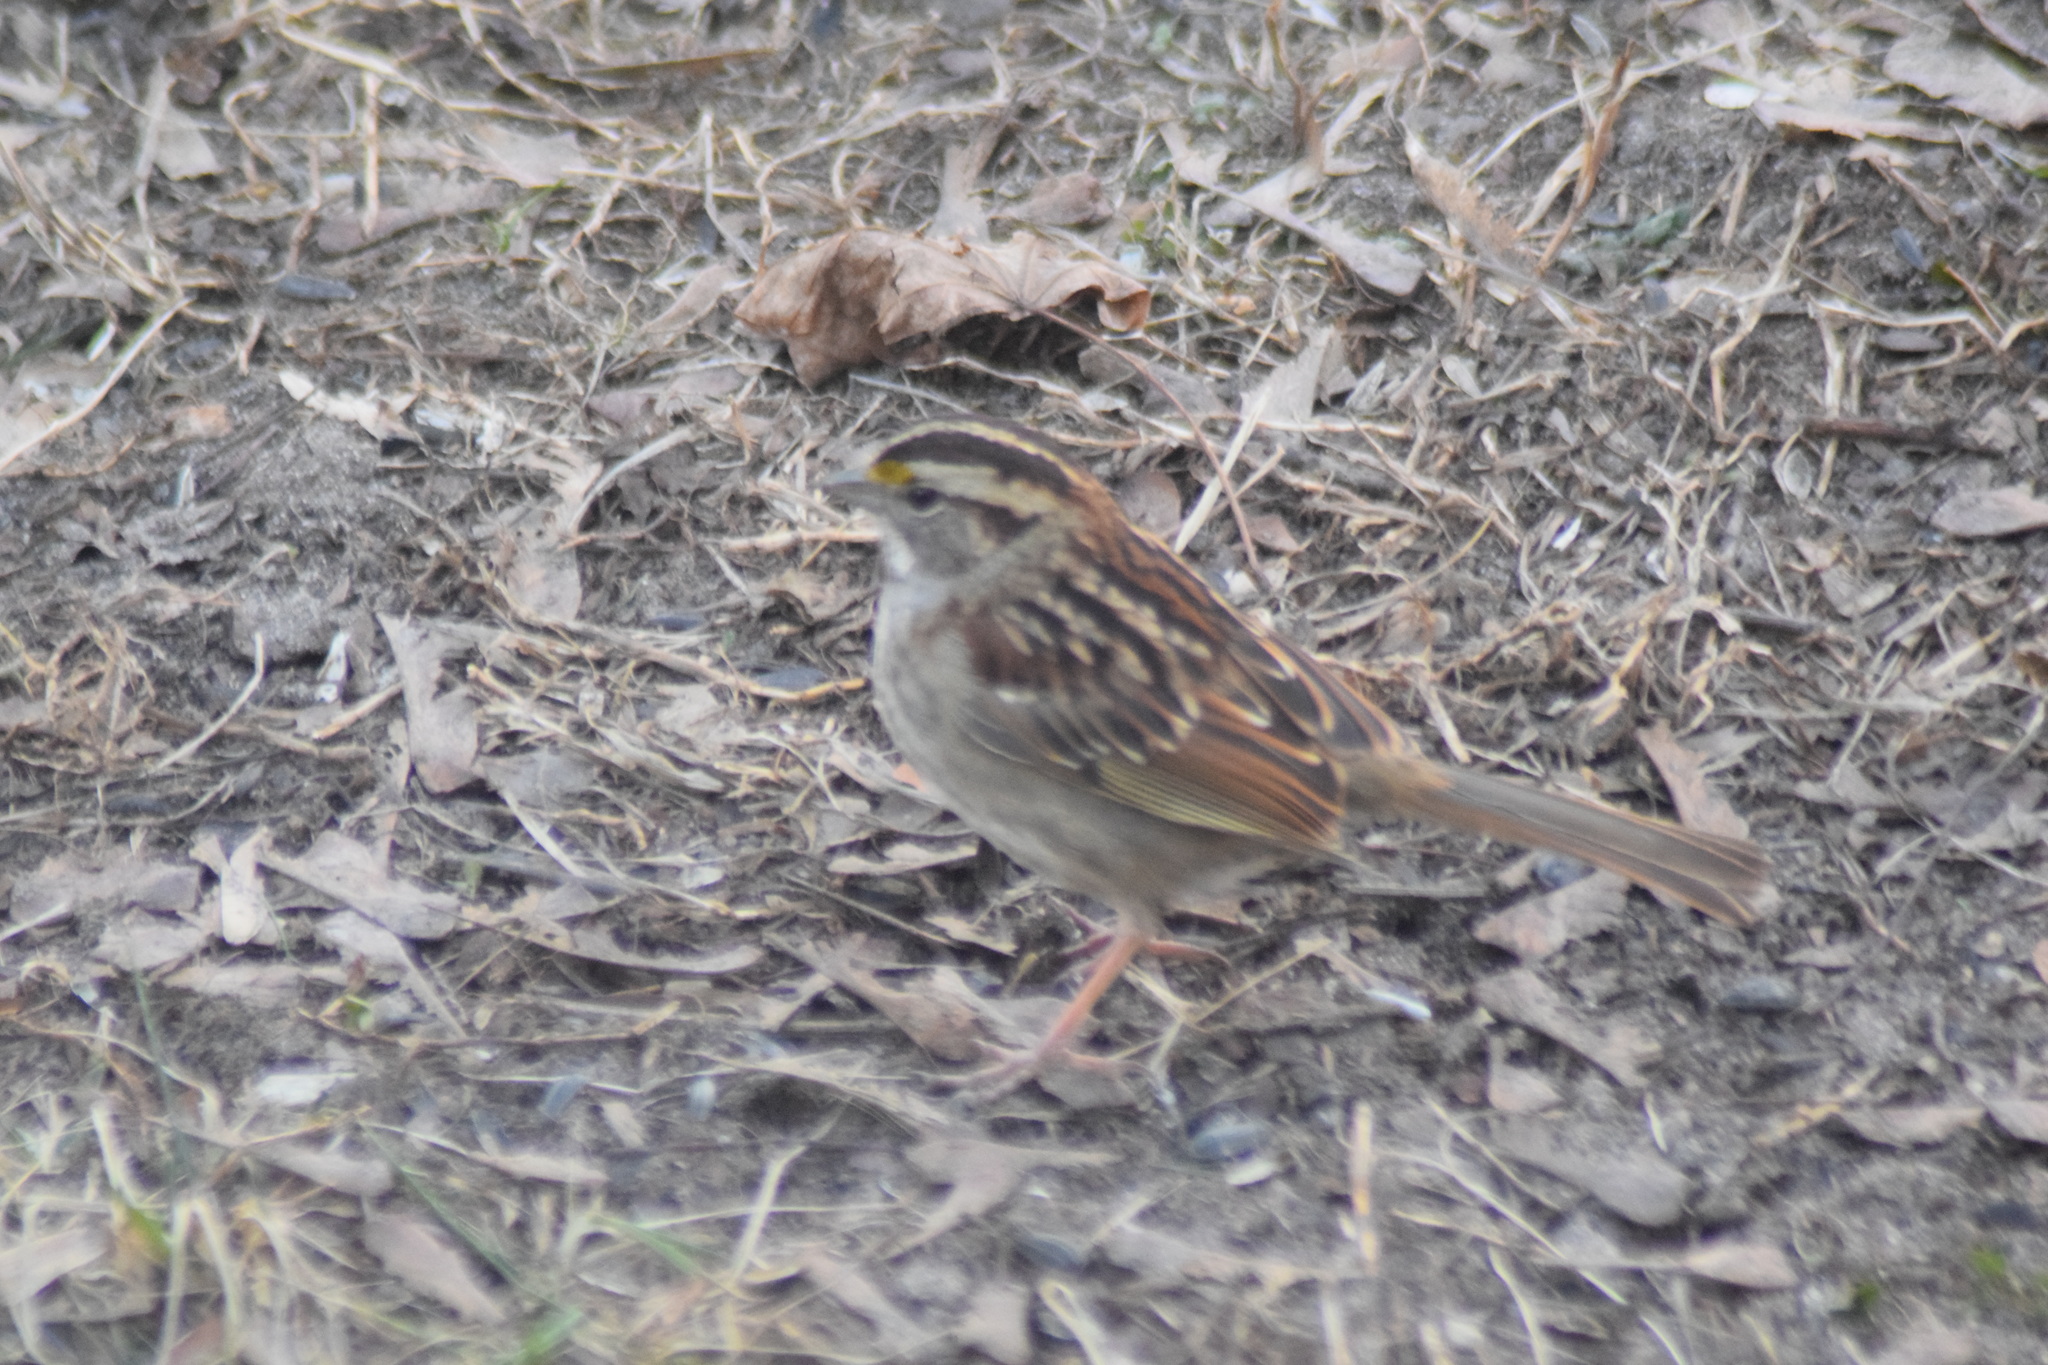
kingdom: Animalia
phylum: Chordata
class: Aves
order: Passeriformes
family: Passerellidae
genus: Zonotrichia
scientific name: Zonotrichia albicollis
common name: White-throated sparrow
